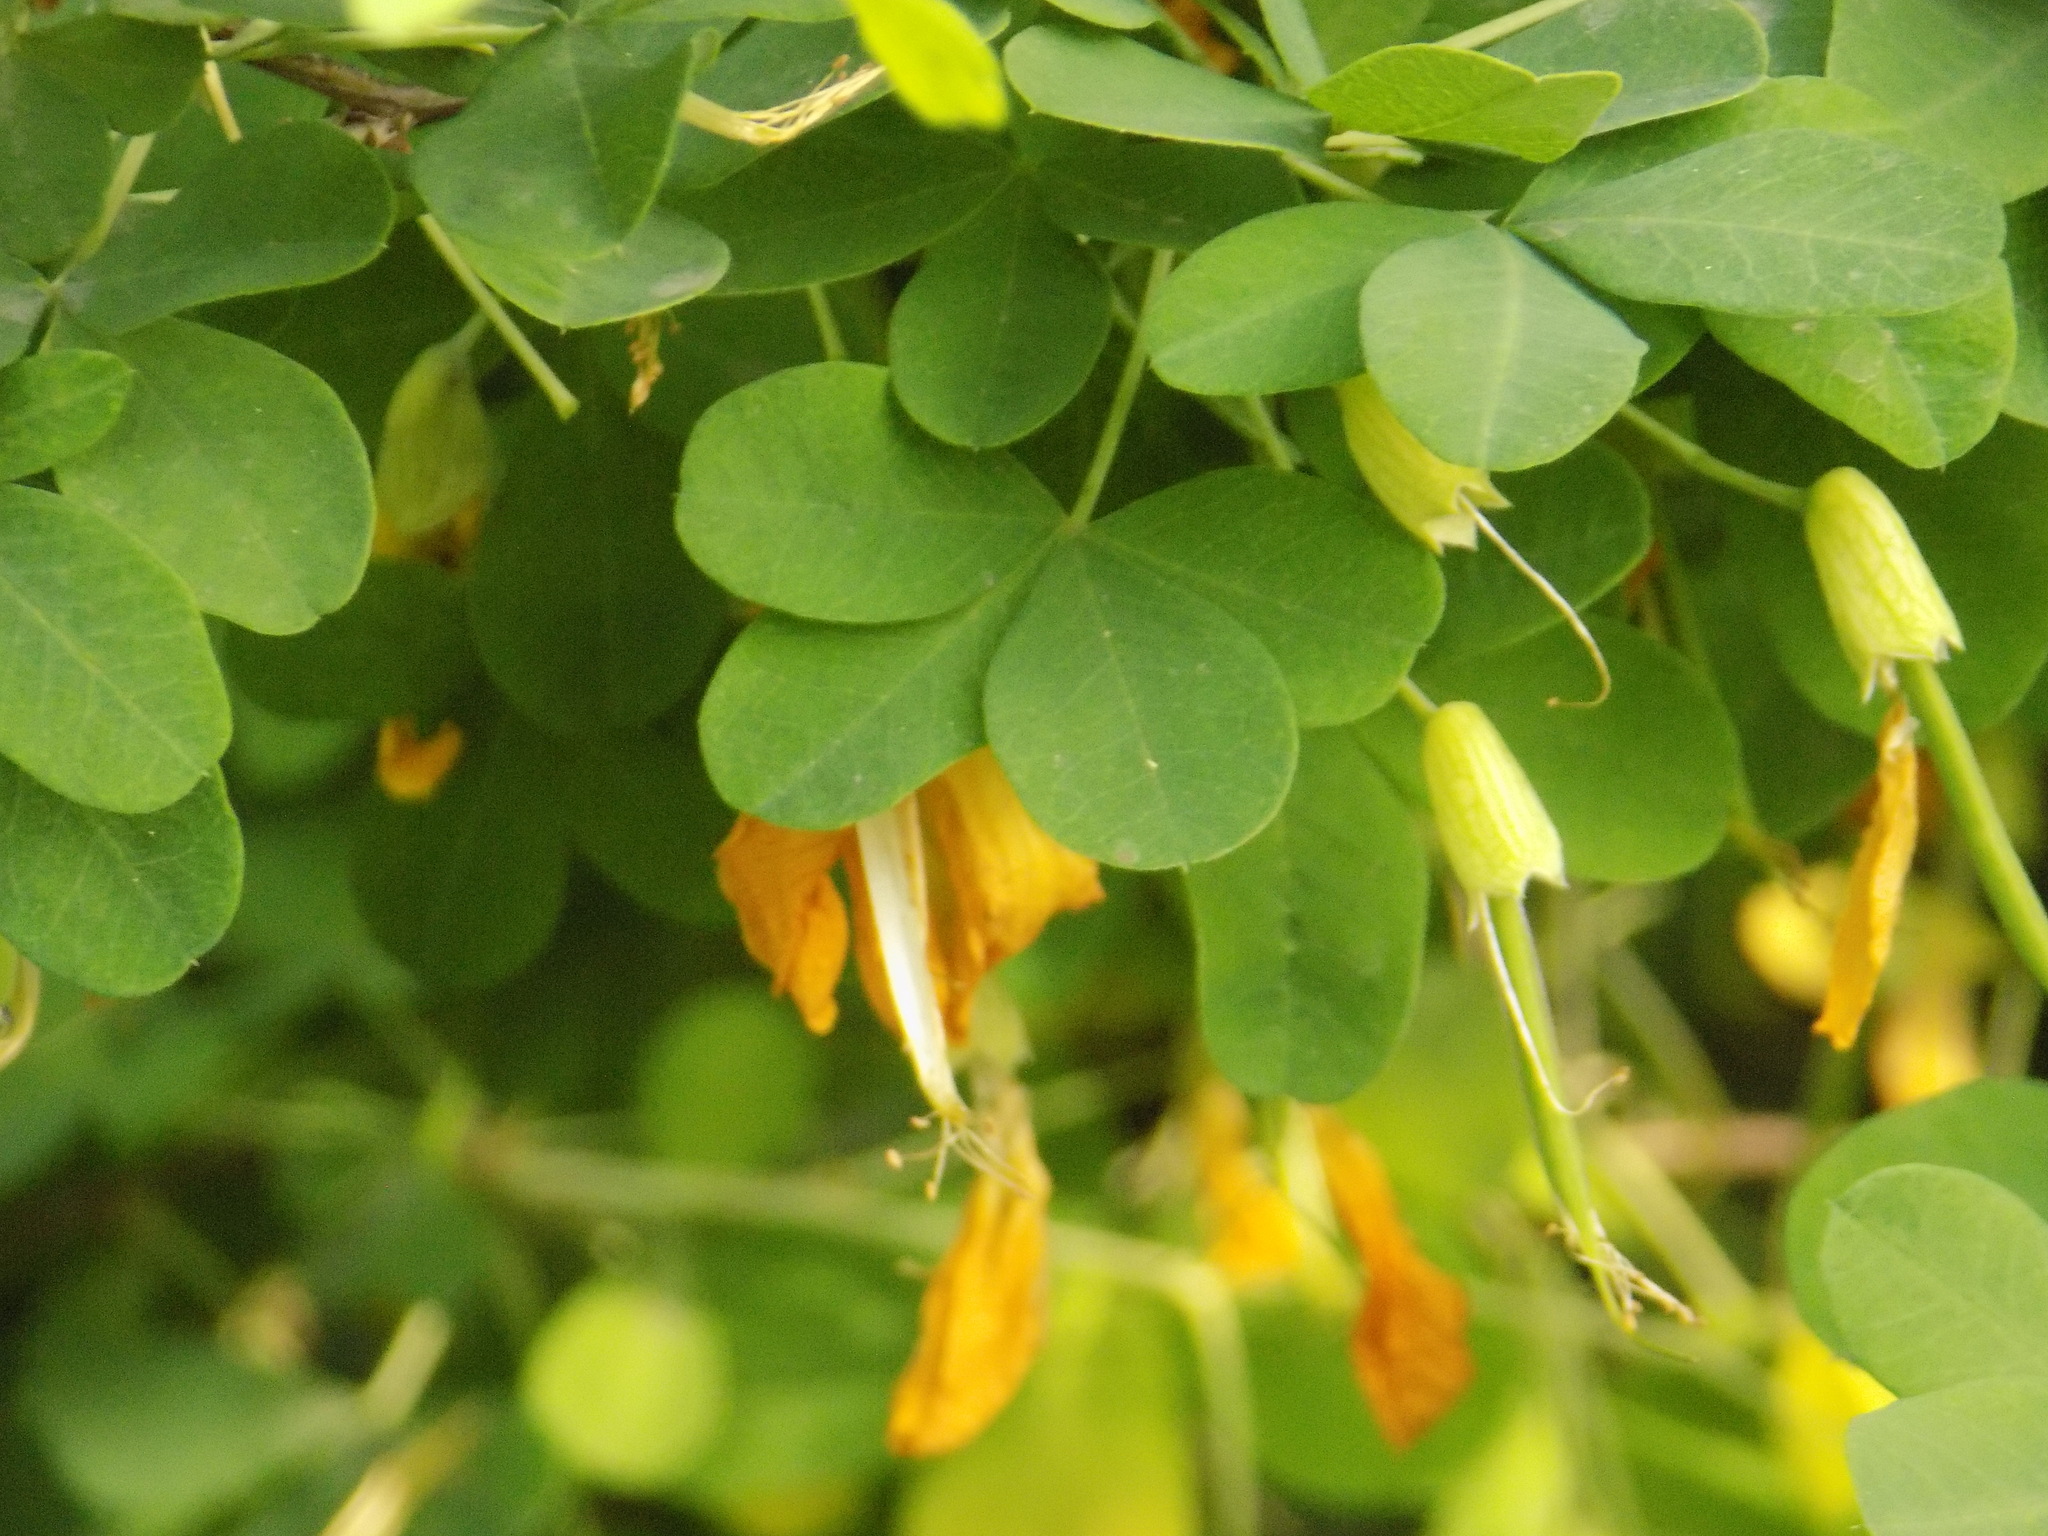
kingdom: Plantae
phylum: Tracheophyta
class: Magnoliopsida
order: Fabales
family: Fabaceae
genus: Caragana
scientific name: Caragana frutex
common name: Russian peashrub
